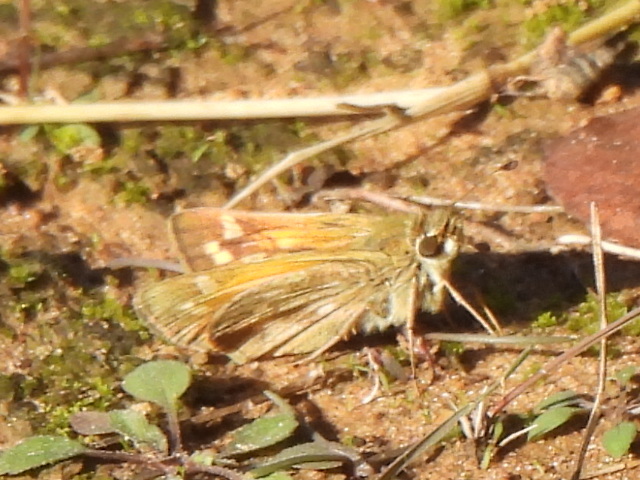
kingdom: Animalia
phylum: Arthropoda
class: Insecta
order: Lepidoptera
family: Hesperiidae
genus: Atalopedes
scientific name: Atalopedes
